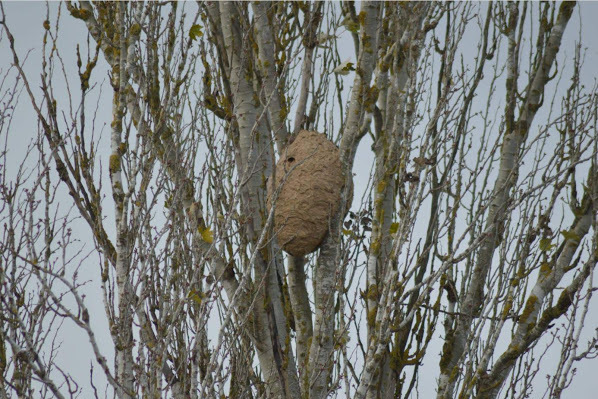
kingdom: Animalia
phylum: Arthropoda
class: Insecta
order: Hymenoptera
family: Vespidae
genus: Vespa
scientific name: Vespa velutina
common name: Asian hornet
